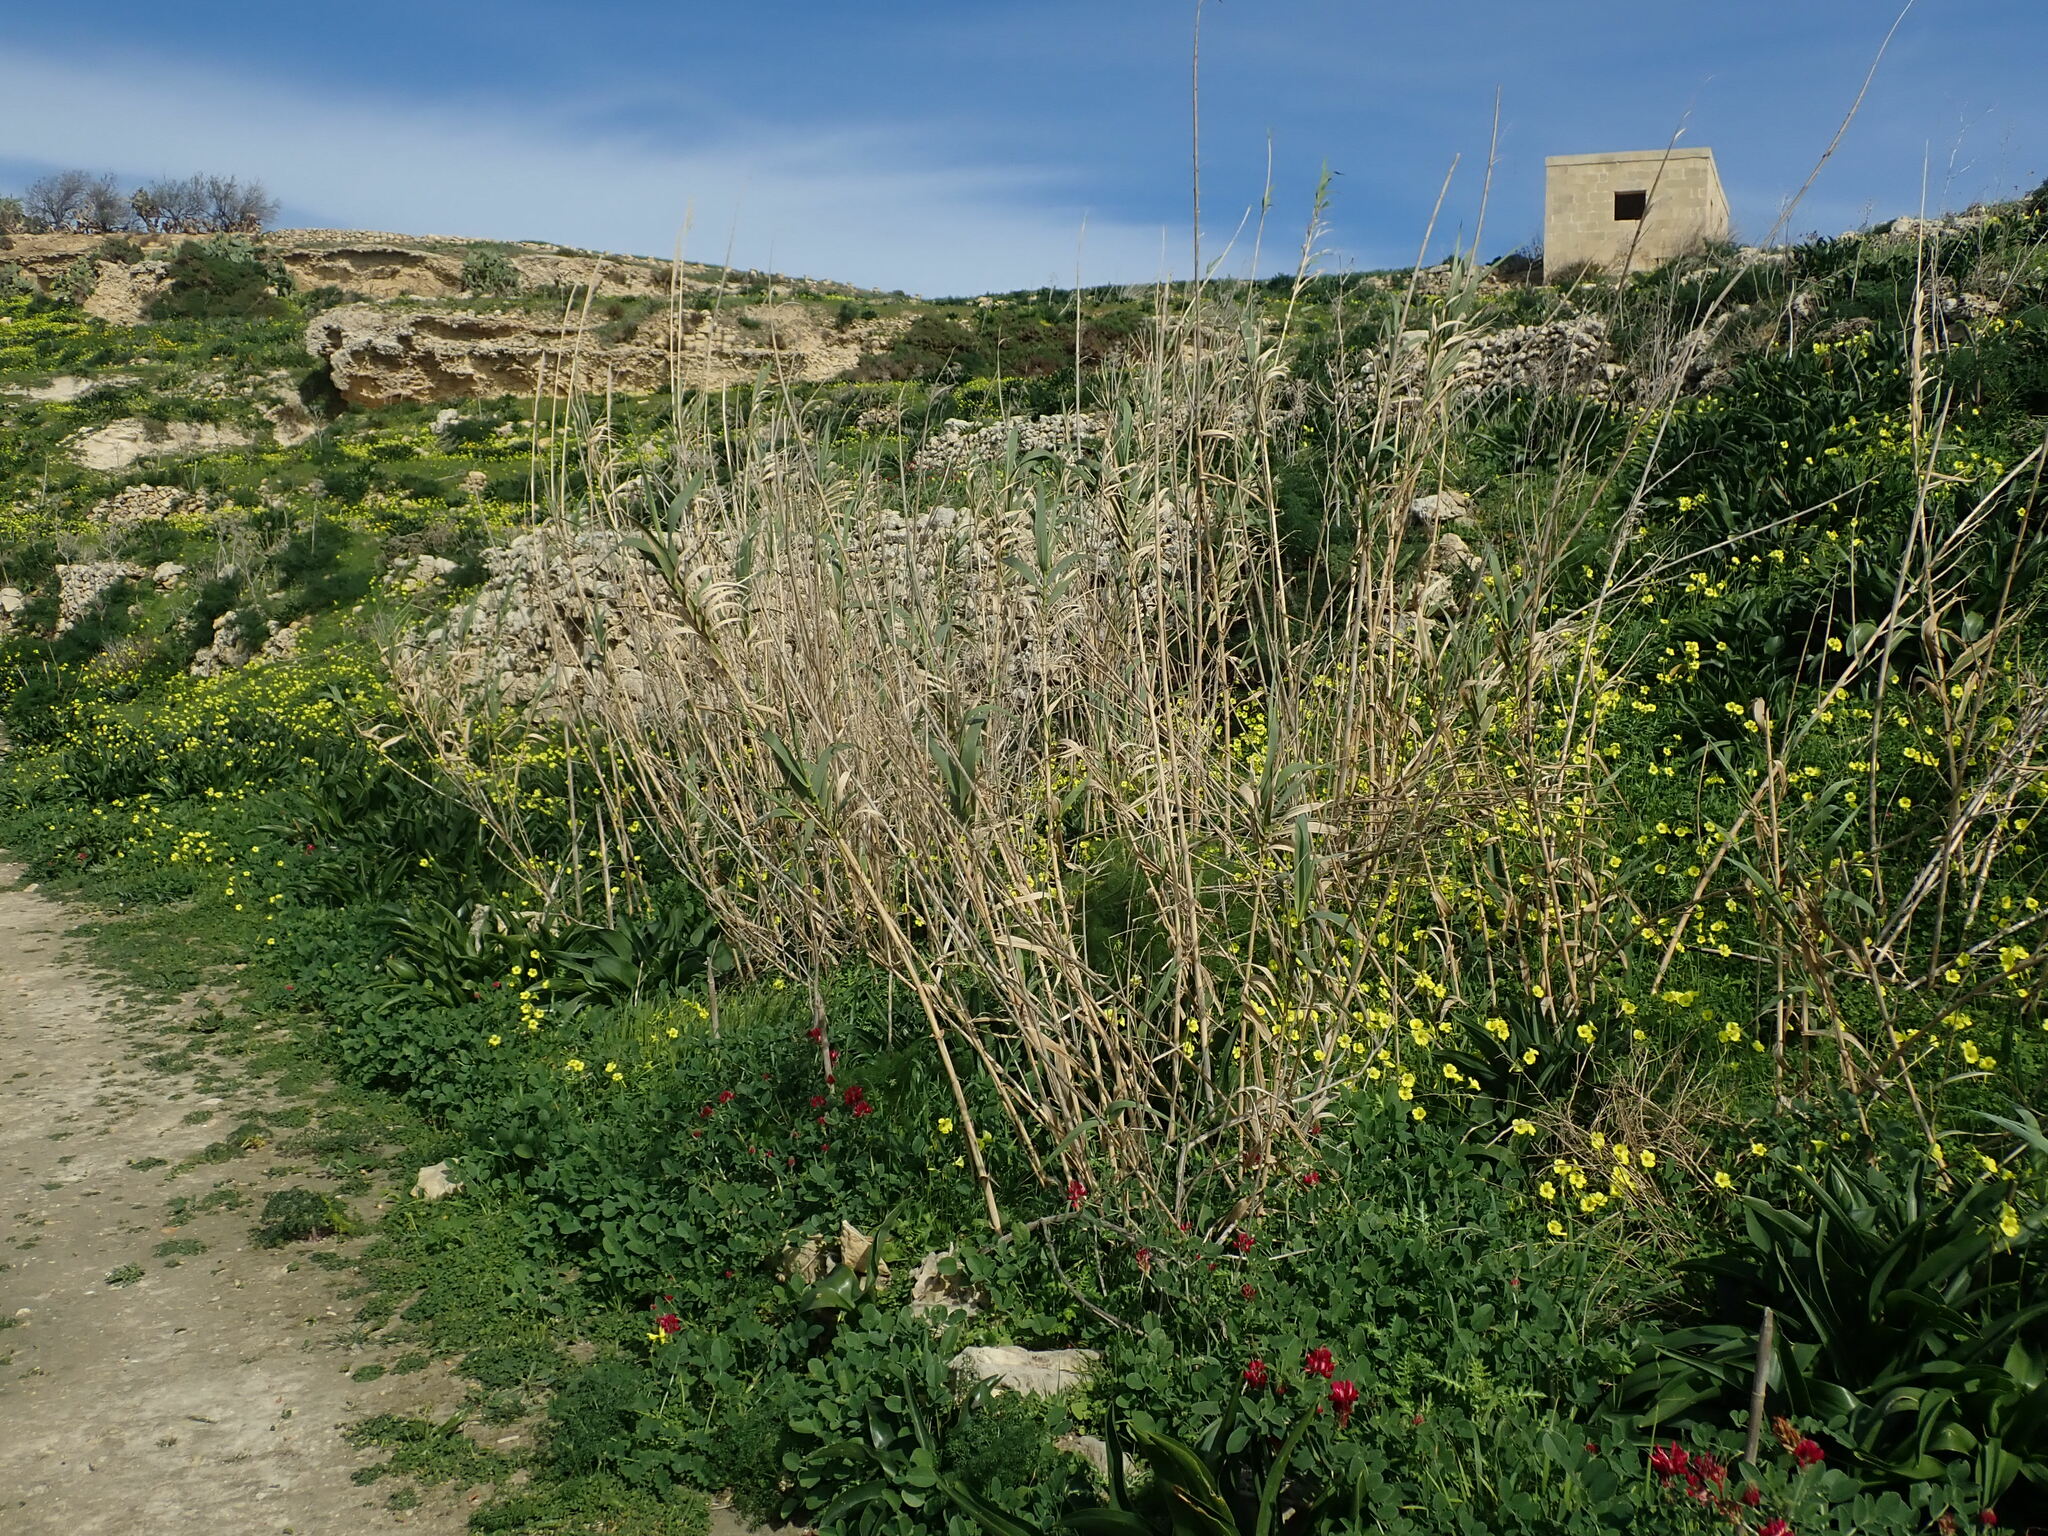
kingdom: Plantae
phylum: Tracheophyta
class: Liliopsida
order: Poales
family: Poaceae
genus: Arundo
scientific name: Arundo donax
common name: Giant reed
